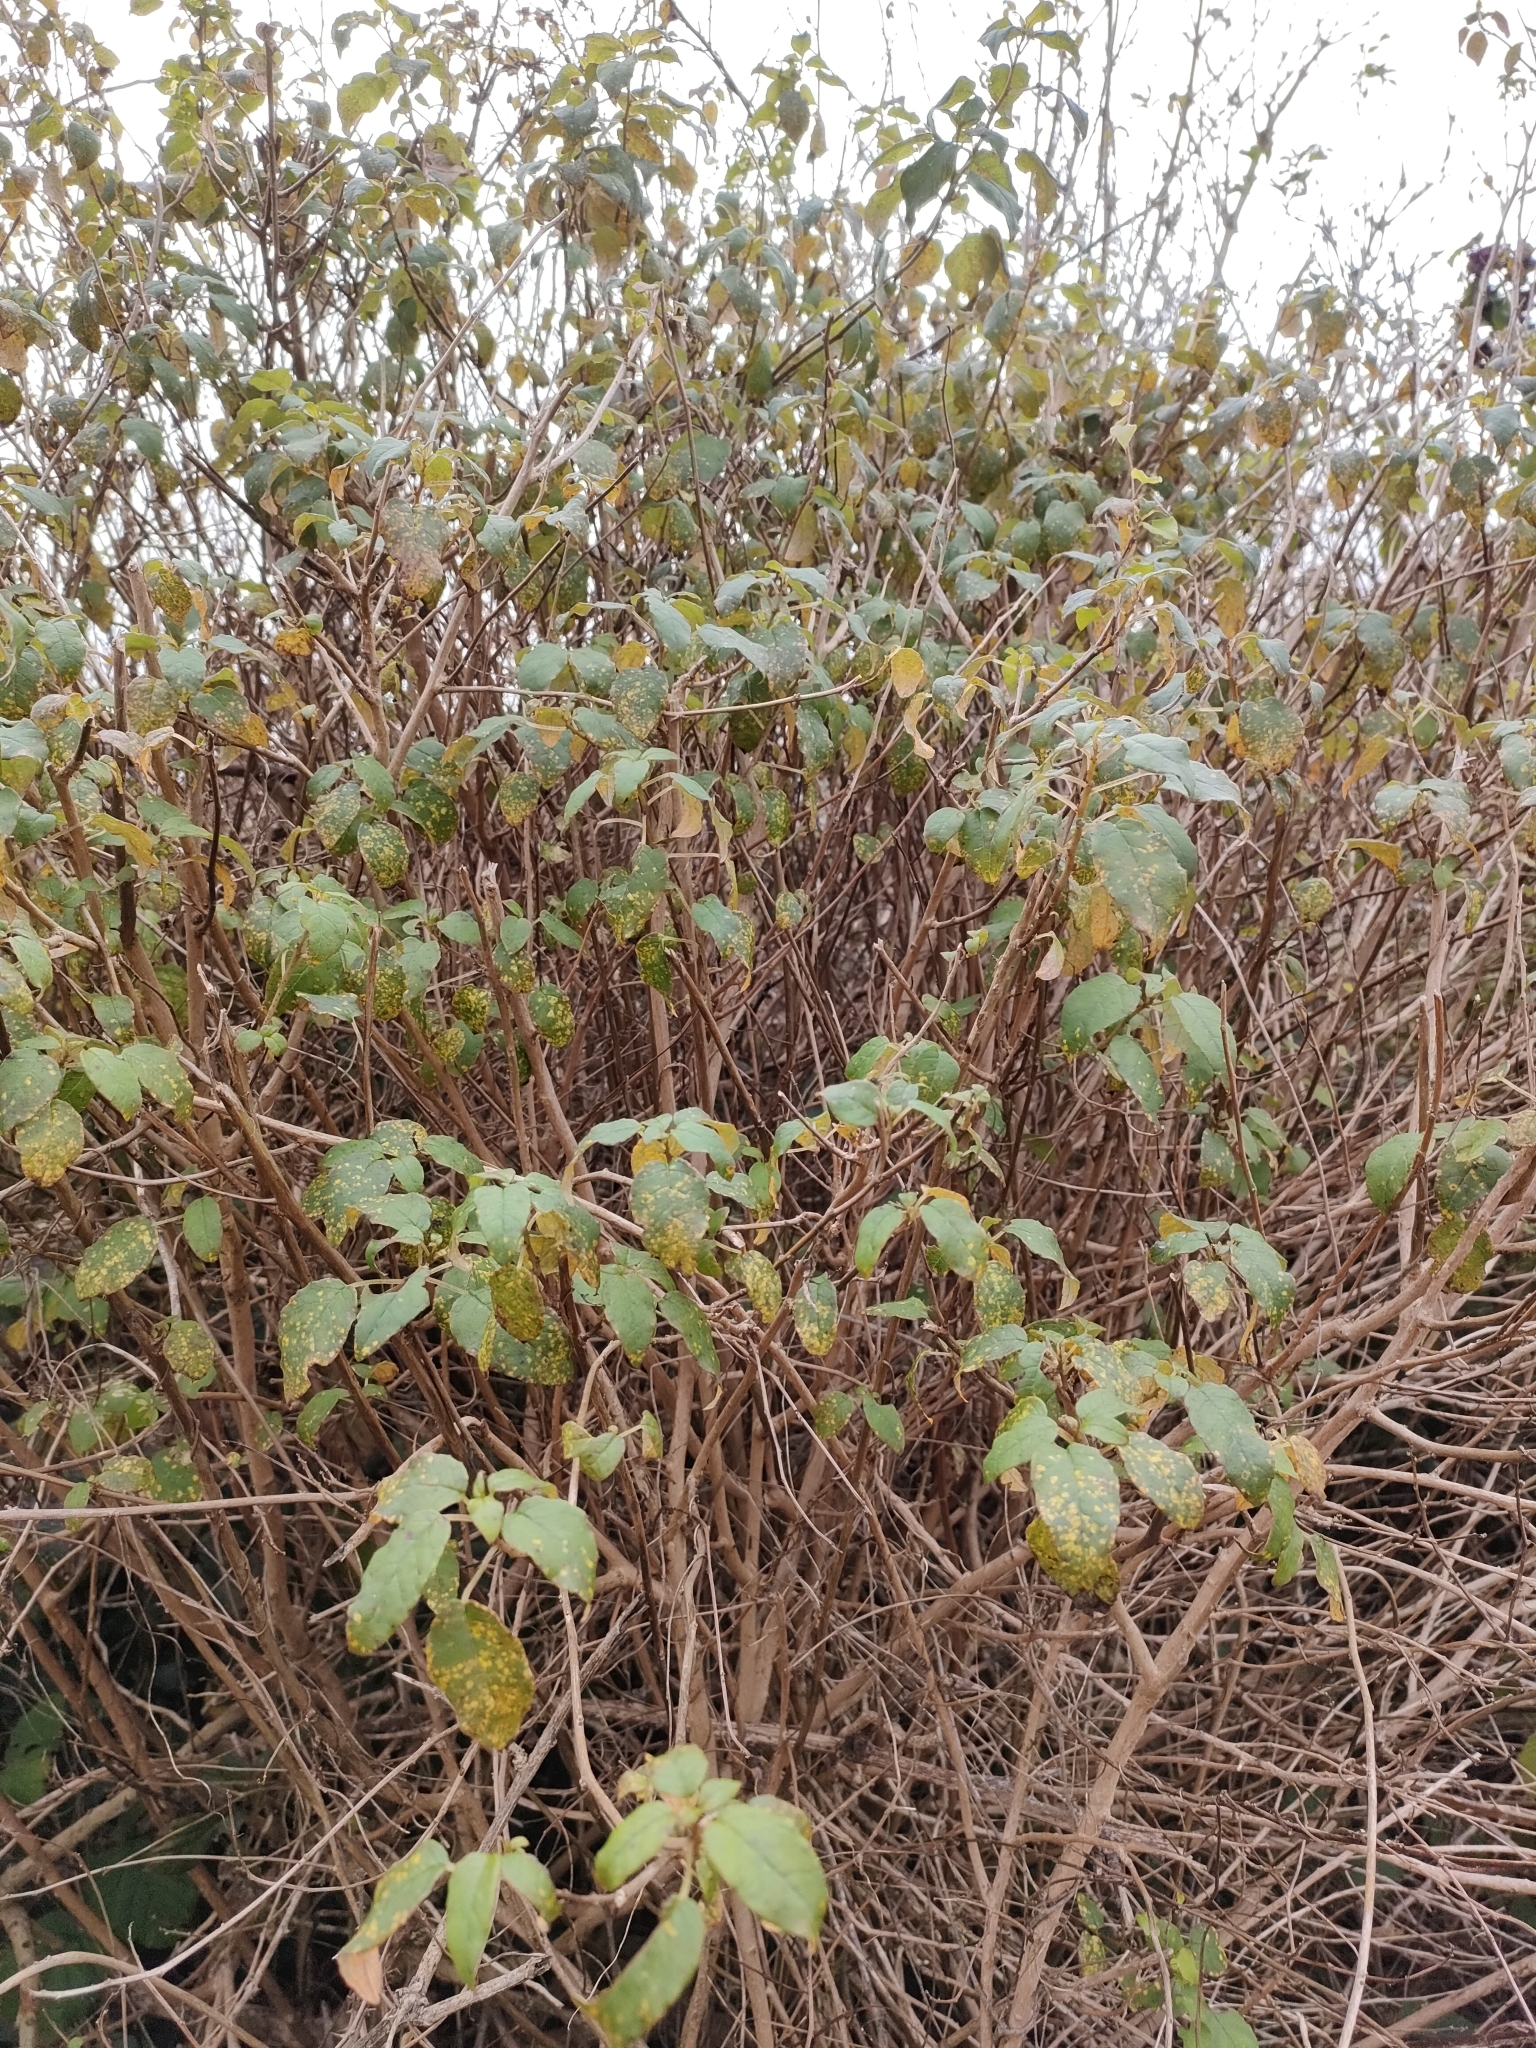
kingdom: Plantae
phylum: Tracheophyta
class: Magnoliopsida
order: Myrtales
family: Onagraceae
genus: Fuchsia
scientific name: Fuchsia excorticata
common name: Tree fuchsia
